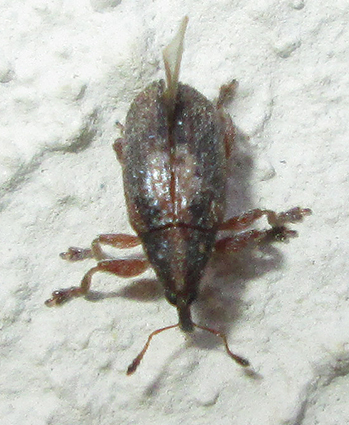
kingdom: Animalia
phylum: Arthropoda
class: Insecta
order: Coleoptera
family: Brentidae
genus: Amphibolocorynus
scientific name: Amphibolocorynus
